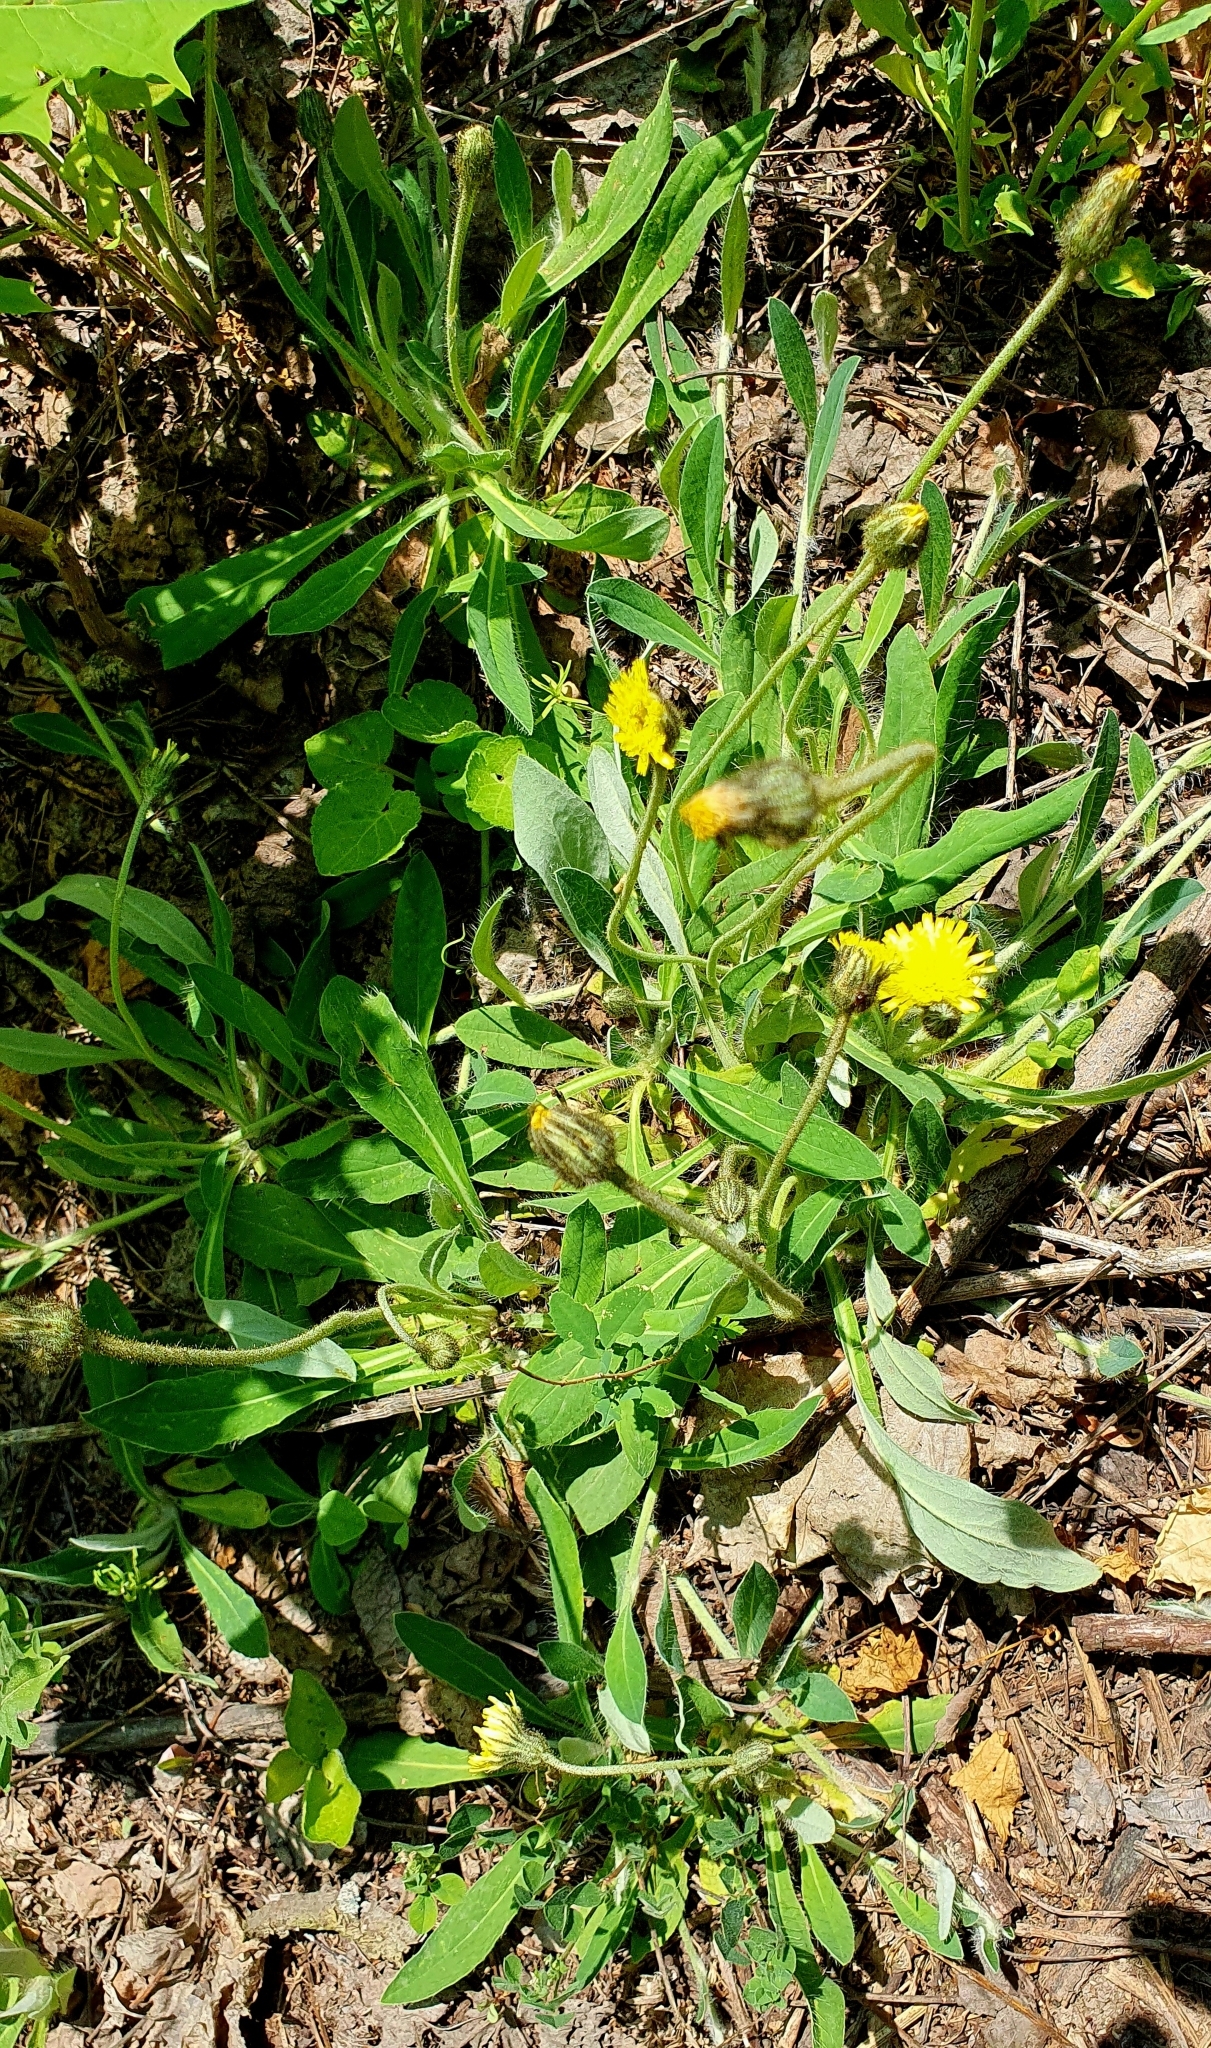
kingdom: Plantae
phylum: Tracheophyta
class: Magnoliopsida
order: Asterales
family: Asteraceae
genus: Pilosella
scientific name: Pilosella officinarum
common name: Mouse-ear hawkweed
